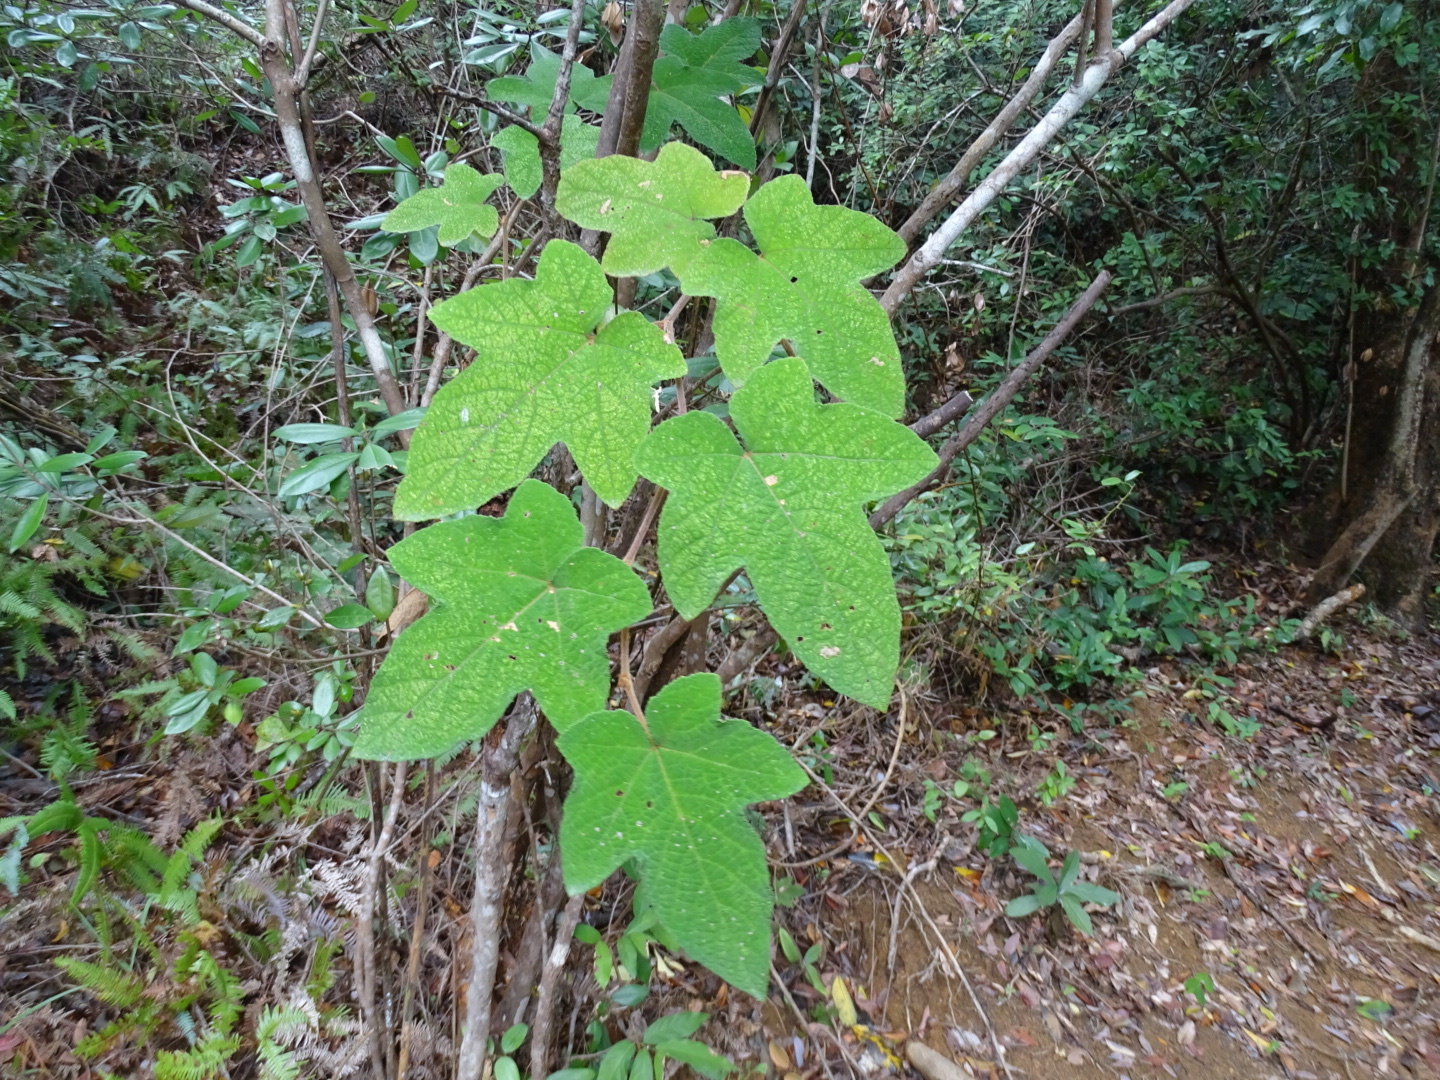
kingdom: Plantae
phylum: Tracheophyta
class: Magnoliopsida
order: Rosales
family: Rosaceae
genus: Rubus
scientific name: Rubus reflexus
